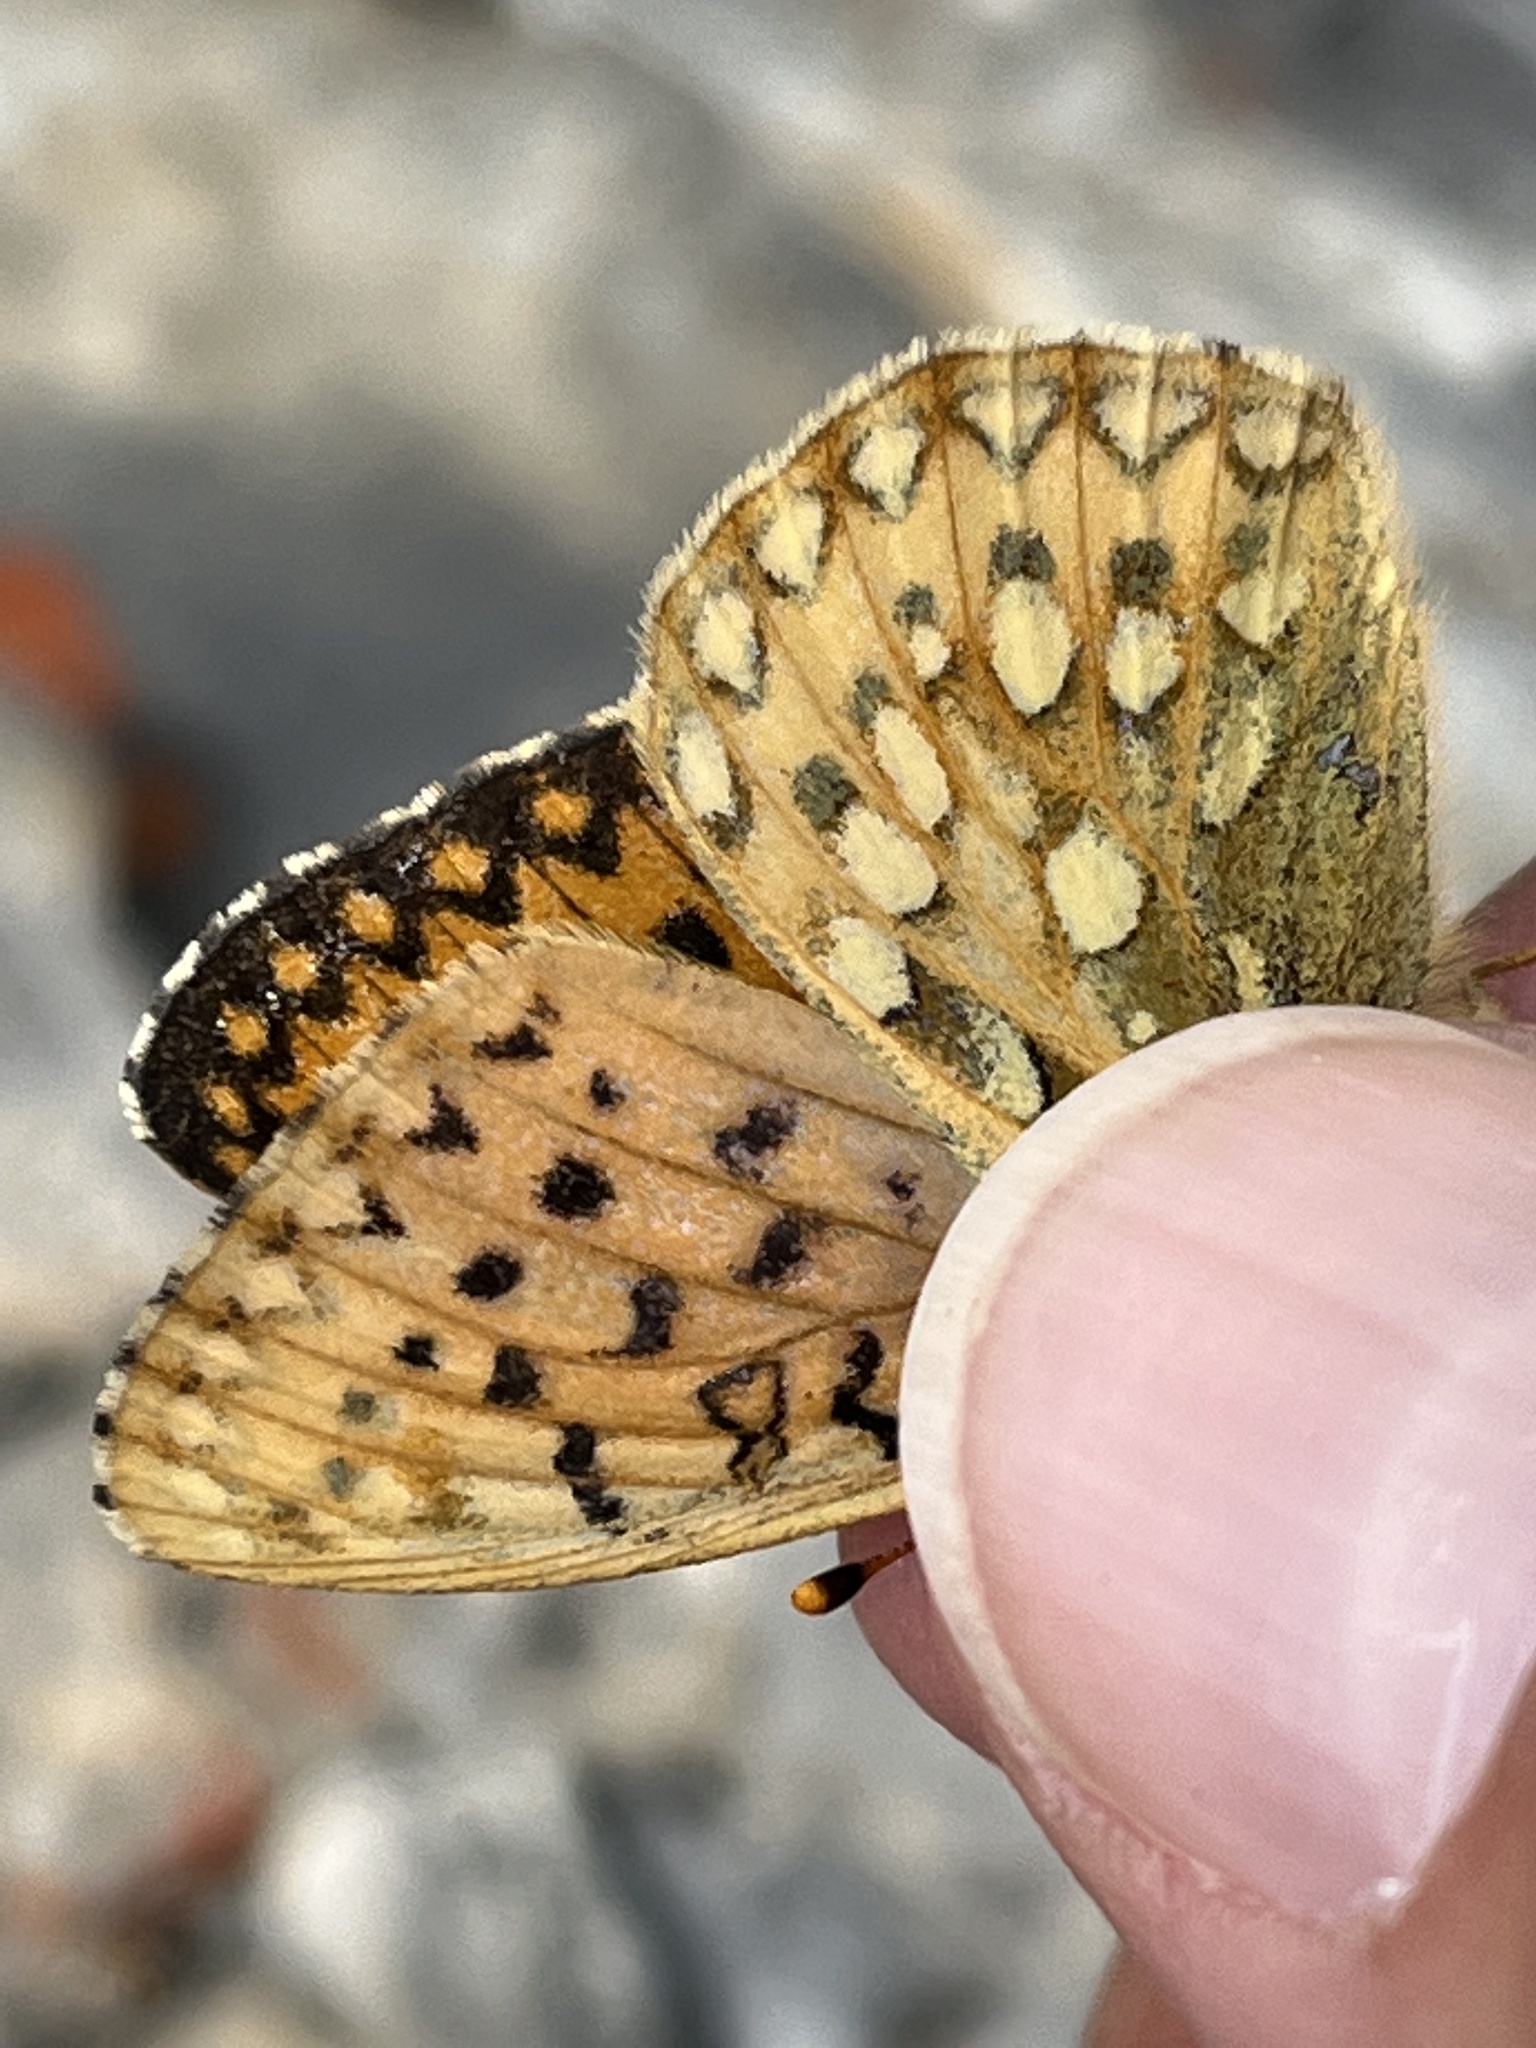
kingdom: Animalia
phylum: Arthropoda
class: Insecta
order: Lepidoptera
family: Nymphalidae
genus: Speyeria
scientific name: Speyeria mormonia
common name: Mormon fritillary
